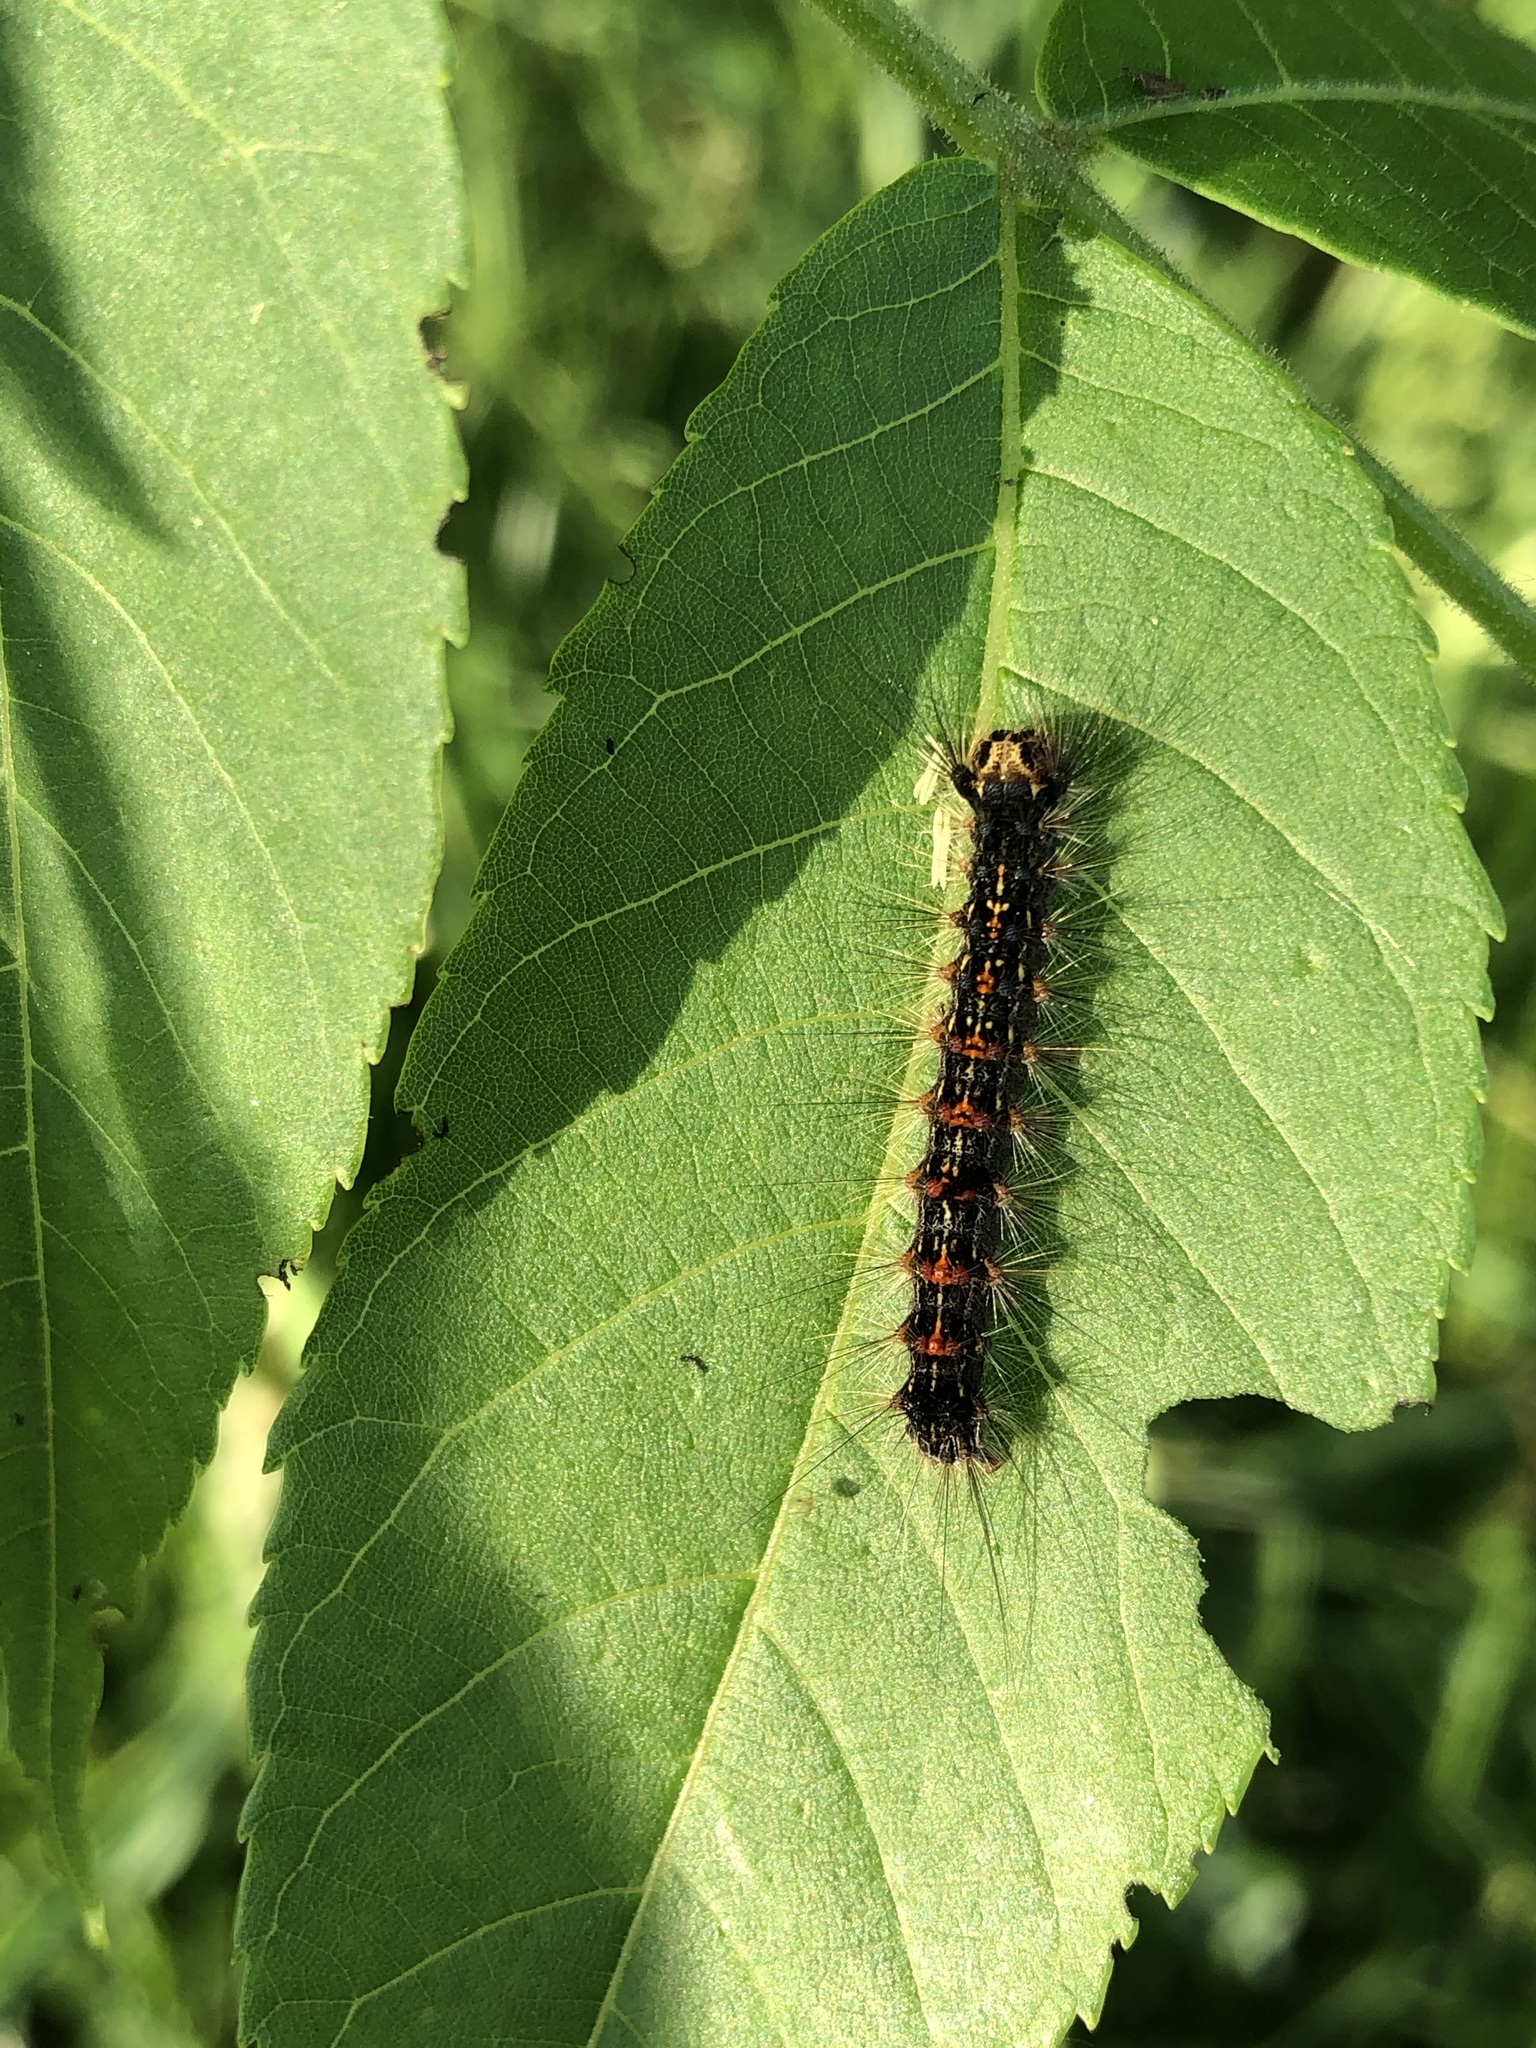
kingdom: Animalia
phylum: Arthropoda
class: Insecta
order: Lepidoptera
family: Erebidae
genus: Lymantria
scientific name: Lymantria dispar
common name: Gypsy moth
